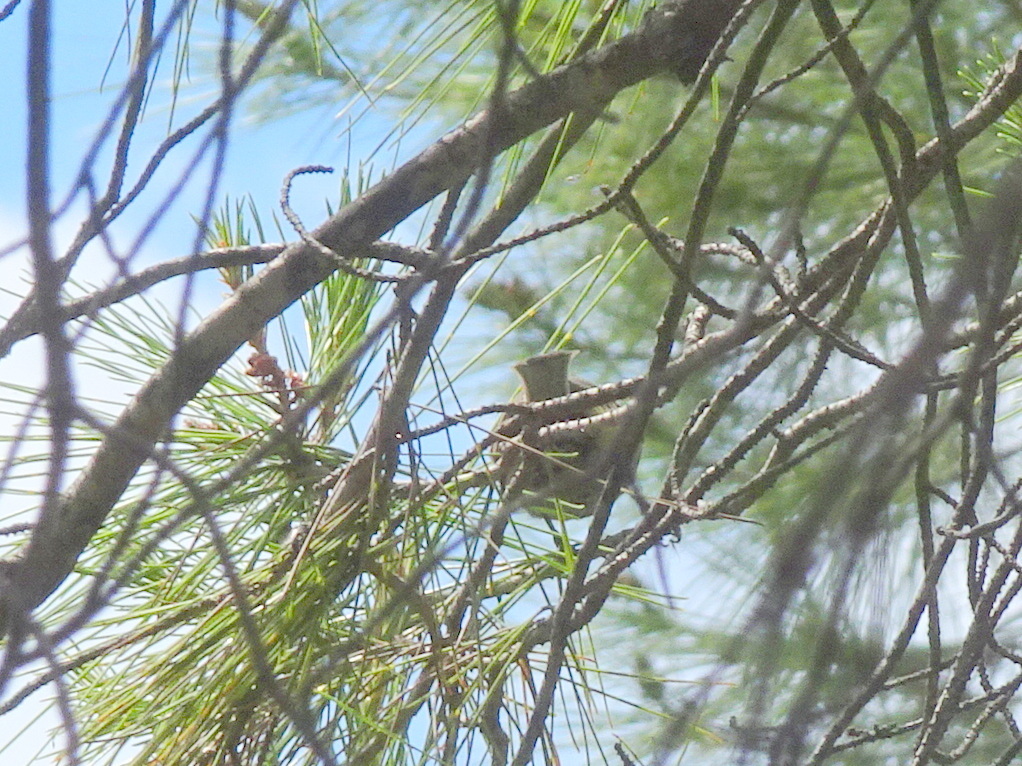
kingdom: Animalia
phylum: Chordata
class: Aves
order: Passeriformes
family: Paridae
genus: Cyanistes
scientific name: Cyanistes caeruleus
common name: Eurasian blue tit
